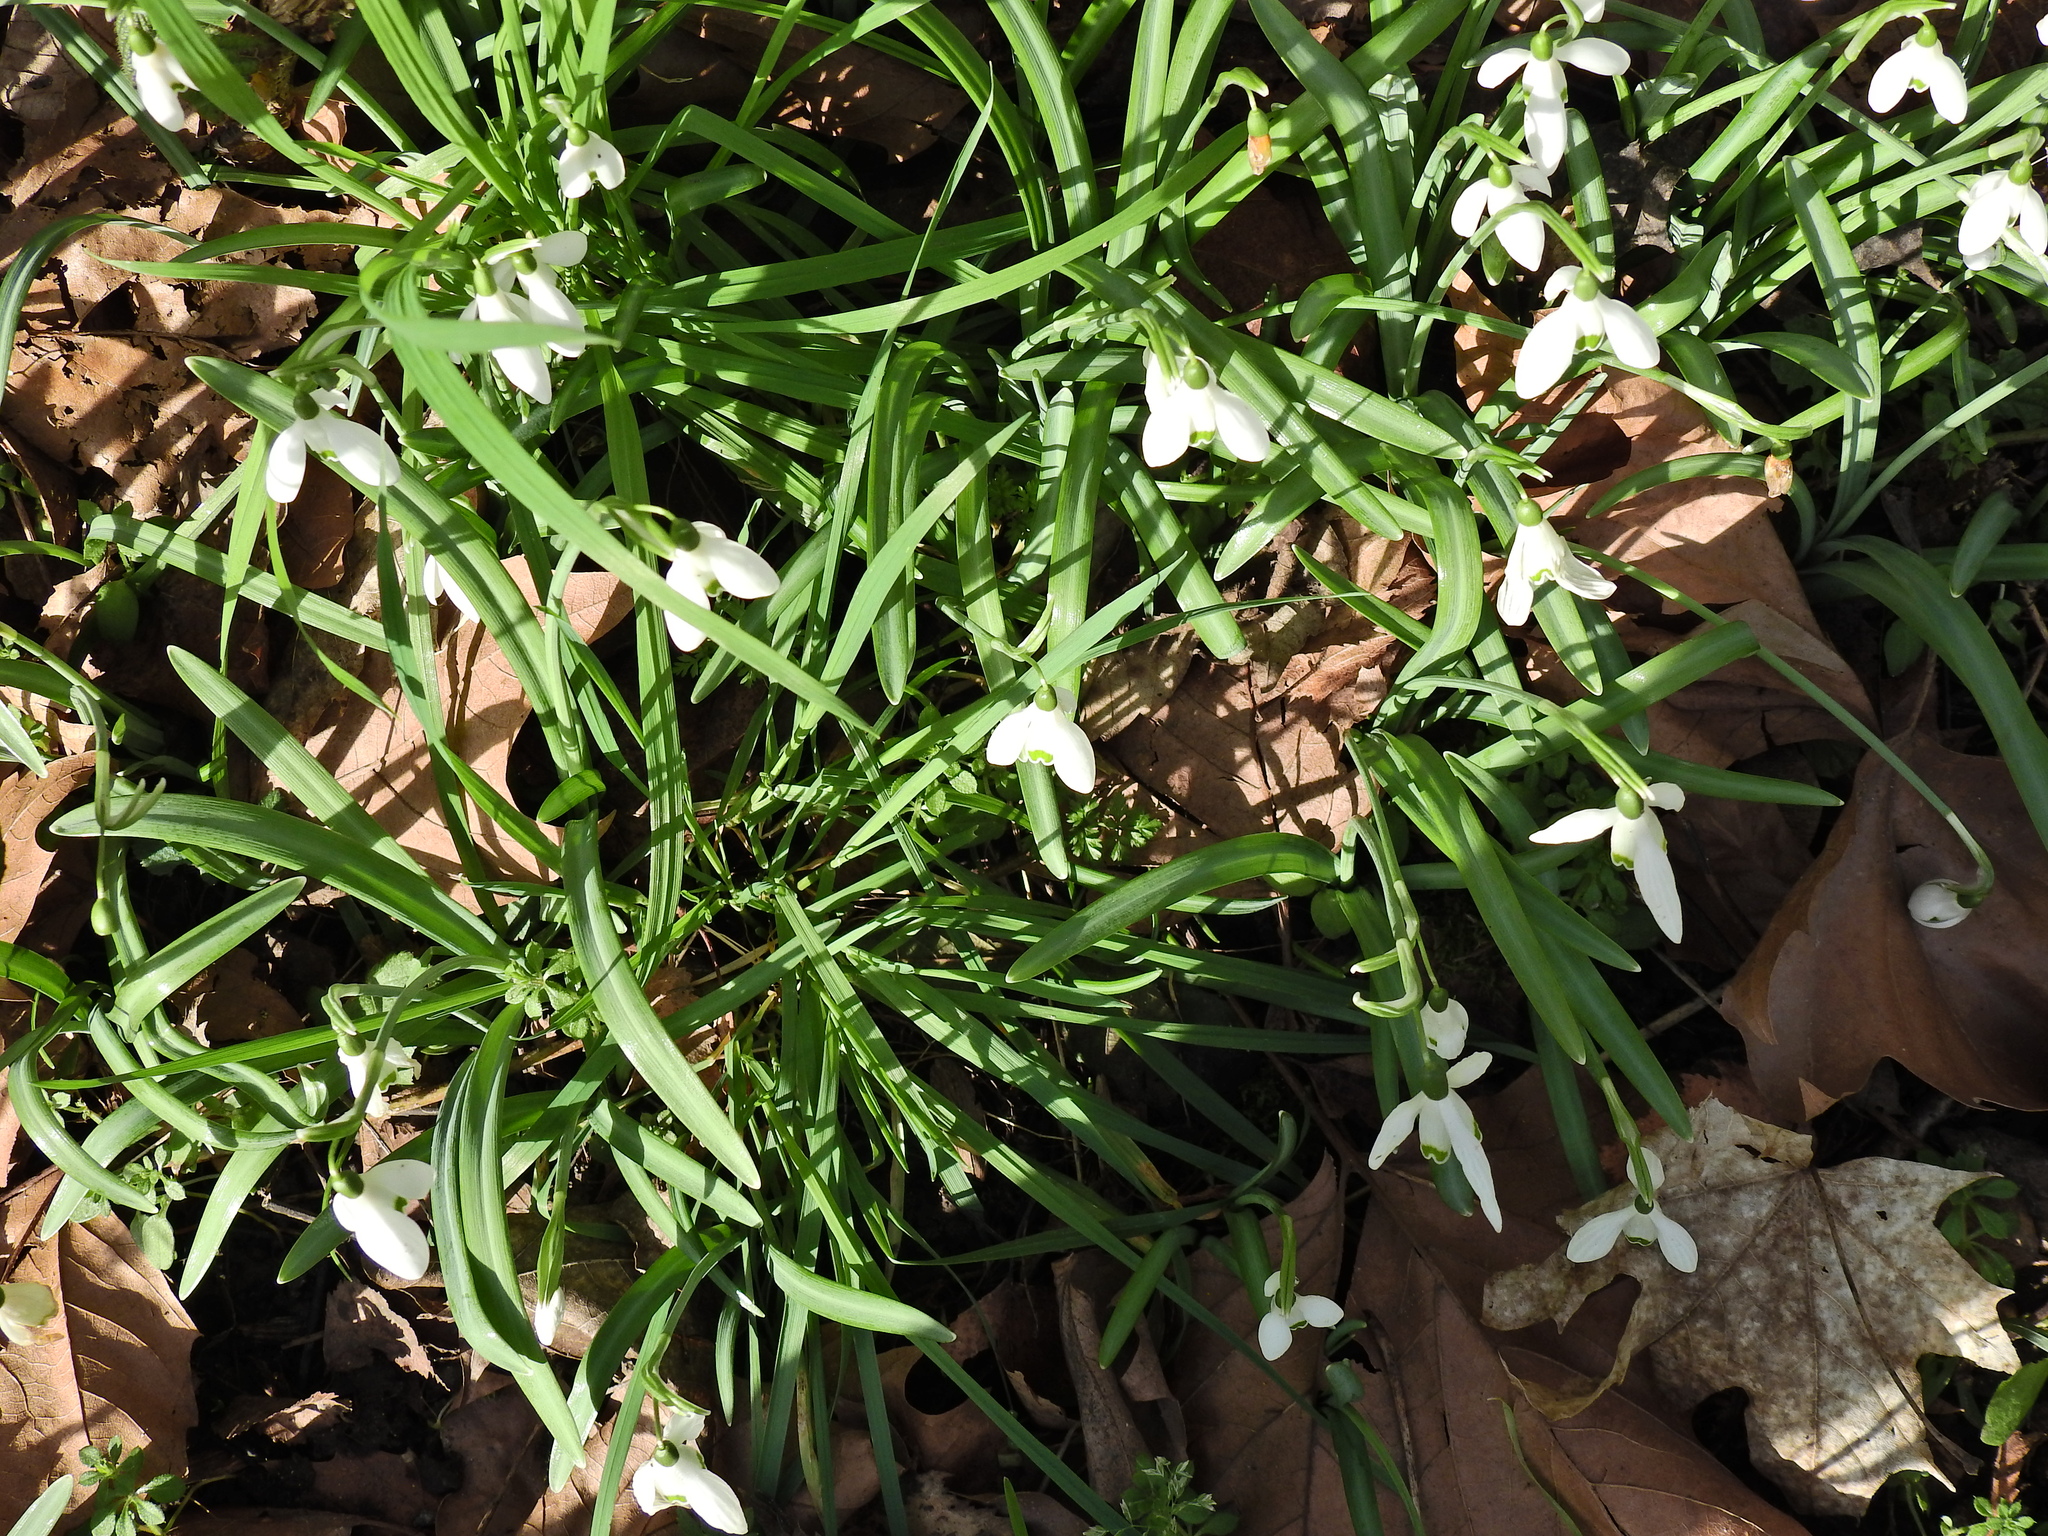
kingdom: Plantae
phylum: Tracheophyta
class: Liliopsida
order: Asparagales
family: Amaryllidaceae
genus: Galanthus
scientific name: Galanthus nivalis
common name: Snowdrop
